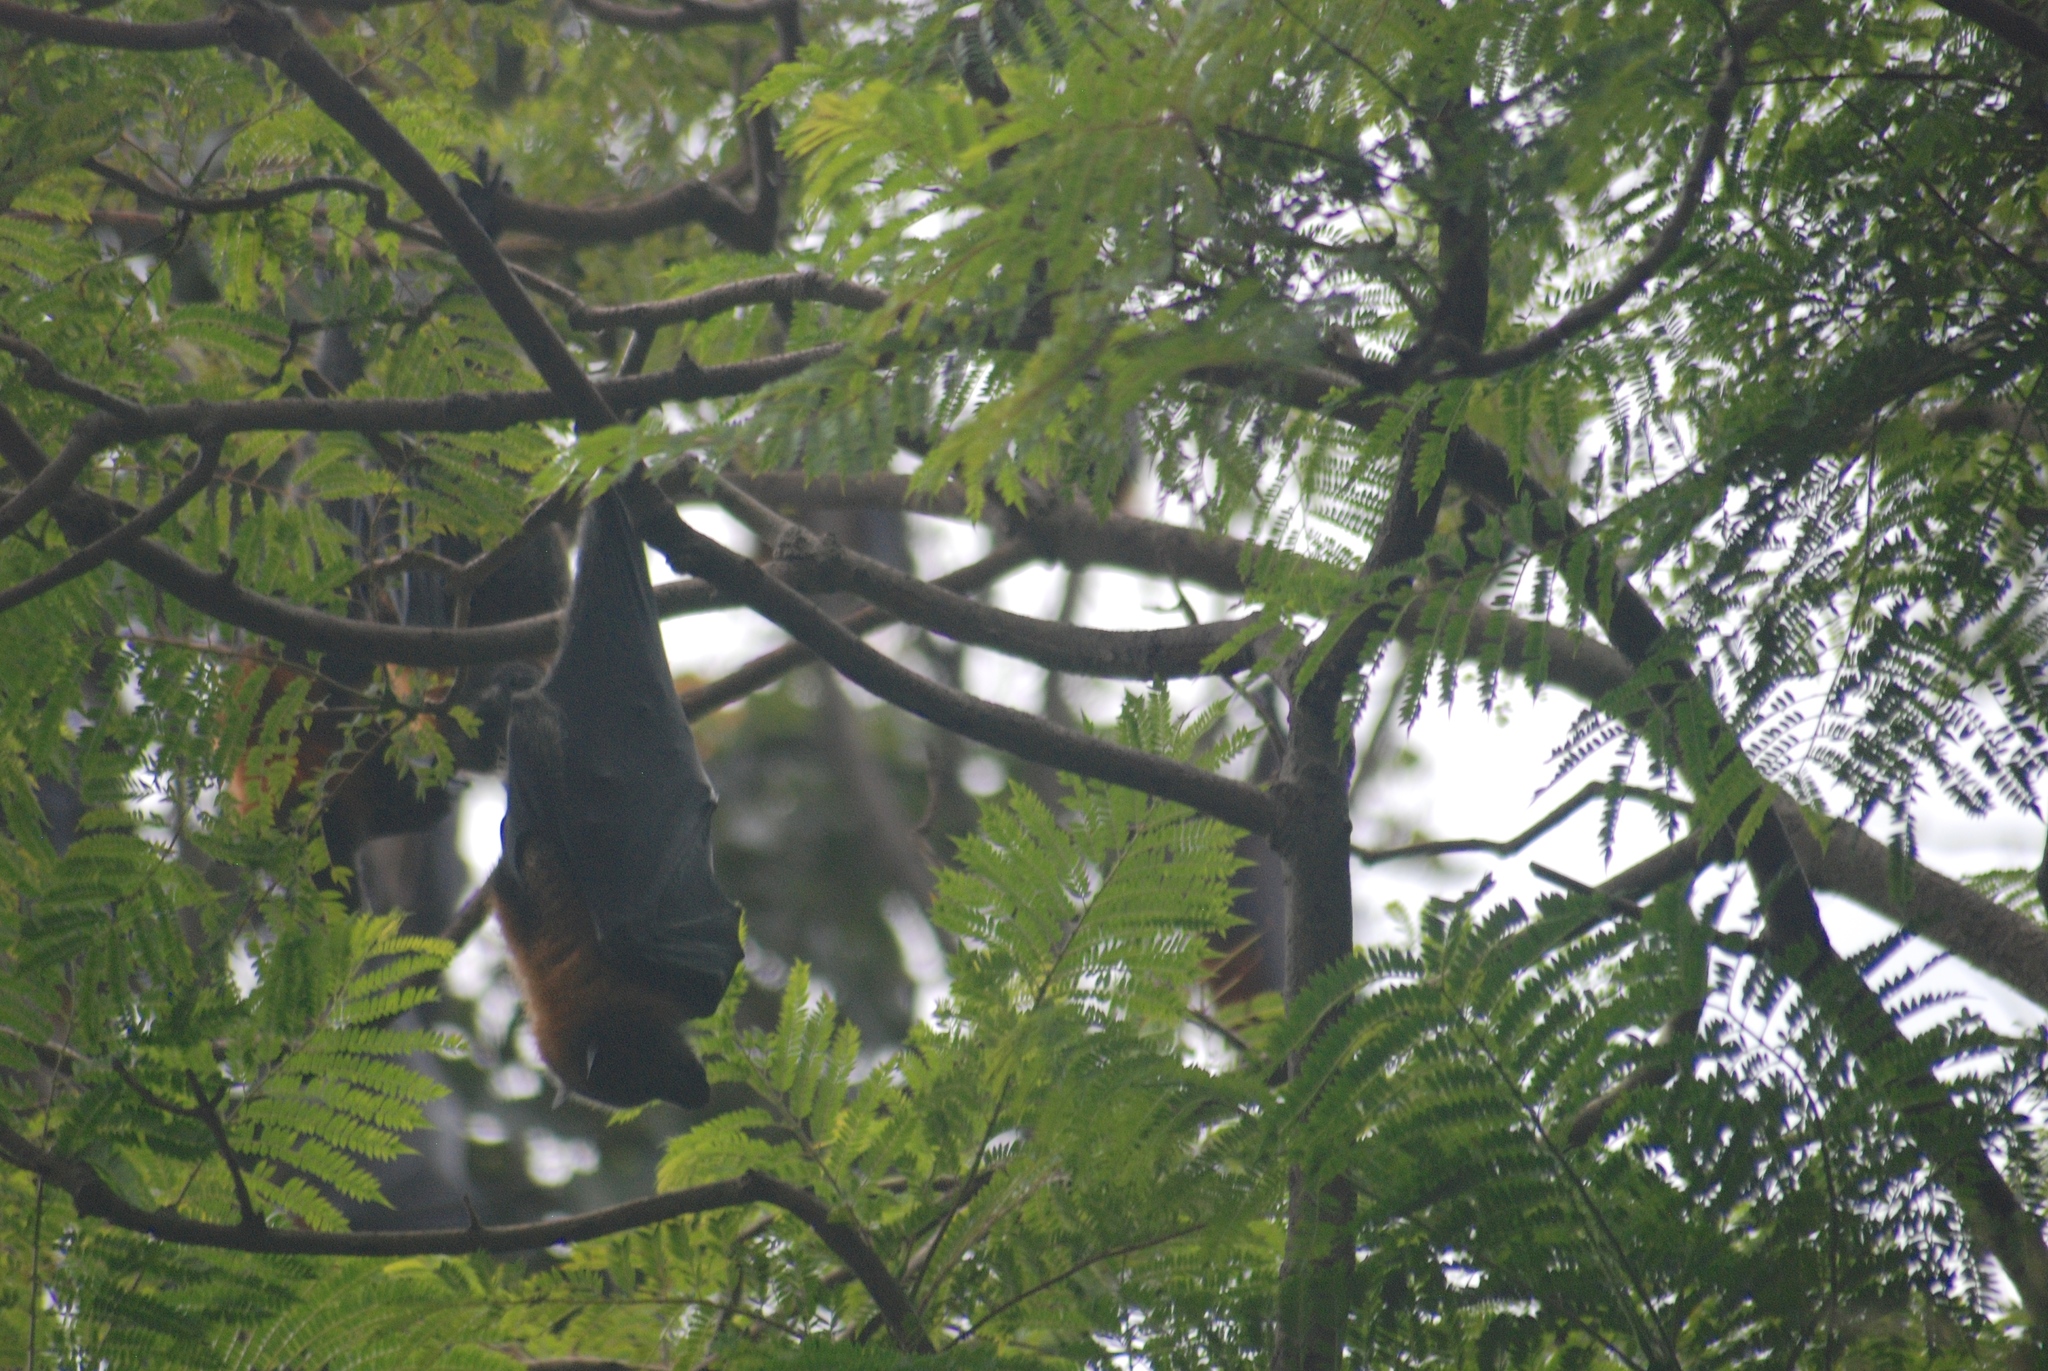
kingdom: Animalia
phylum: Chordata
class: Mammalia
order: Chiroptera
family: Pteropodidae
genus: Pteropus
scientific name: Pteropus poliocephalus
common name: Gray-headed flying fox
